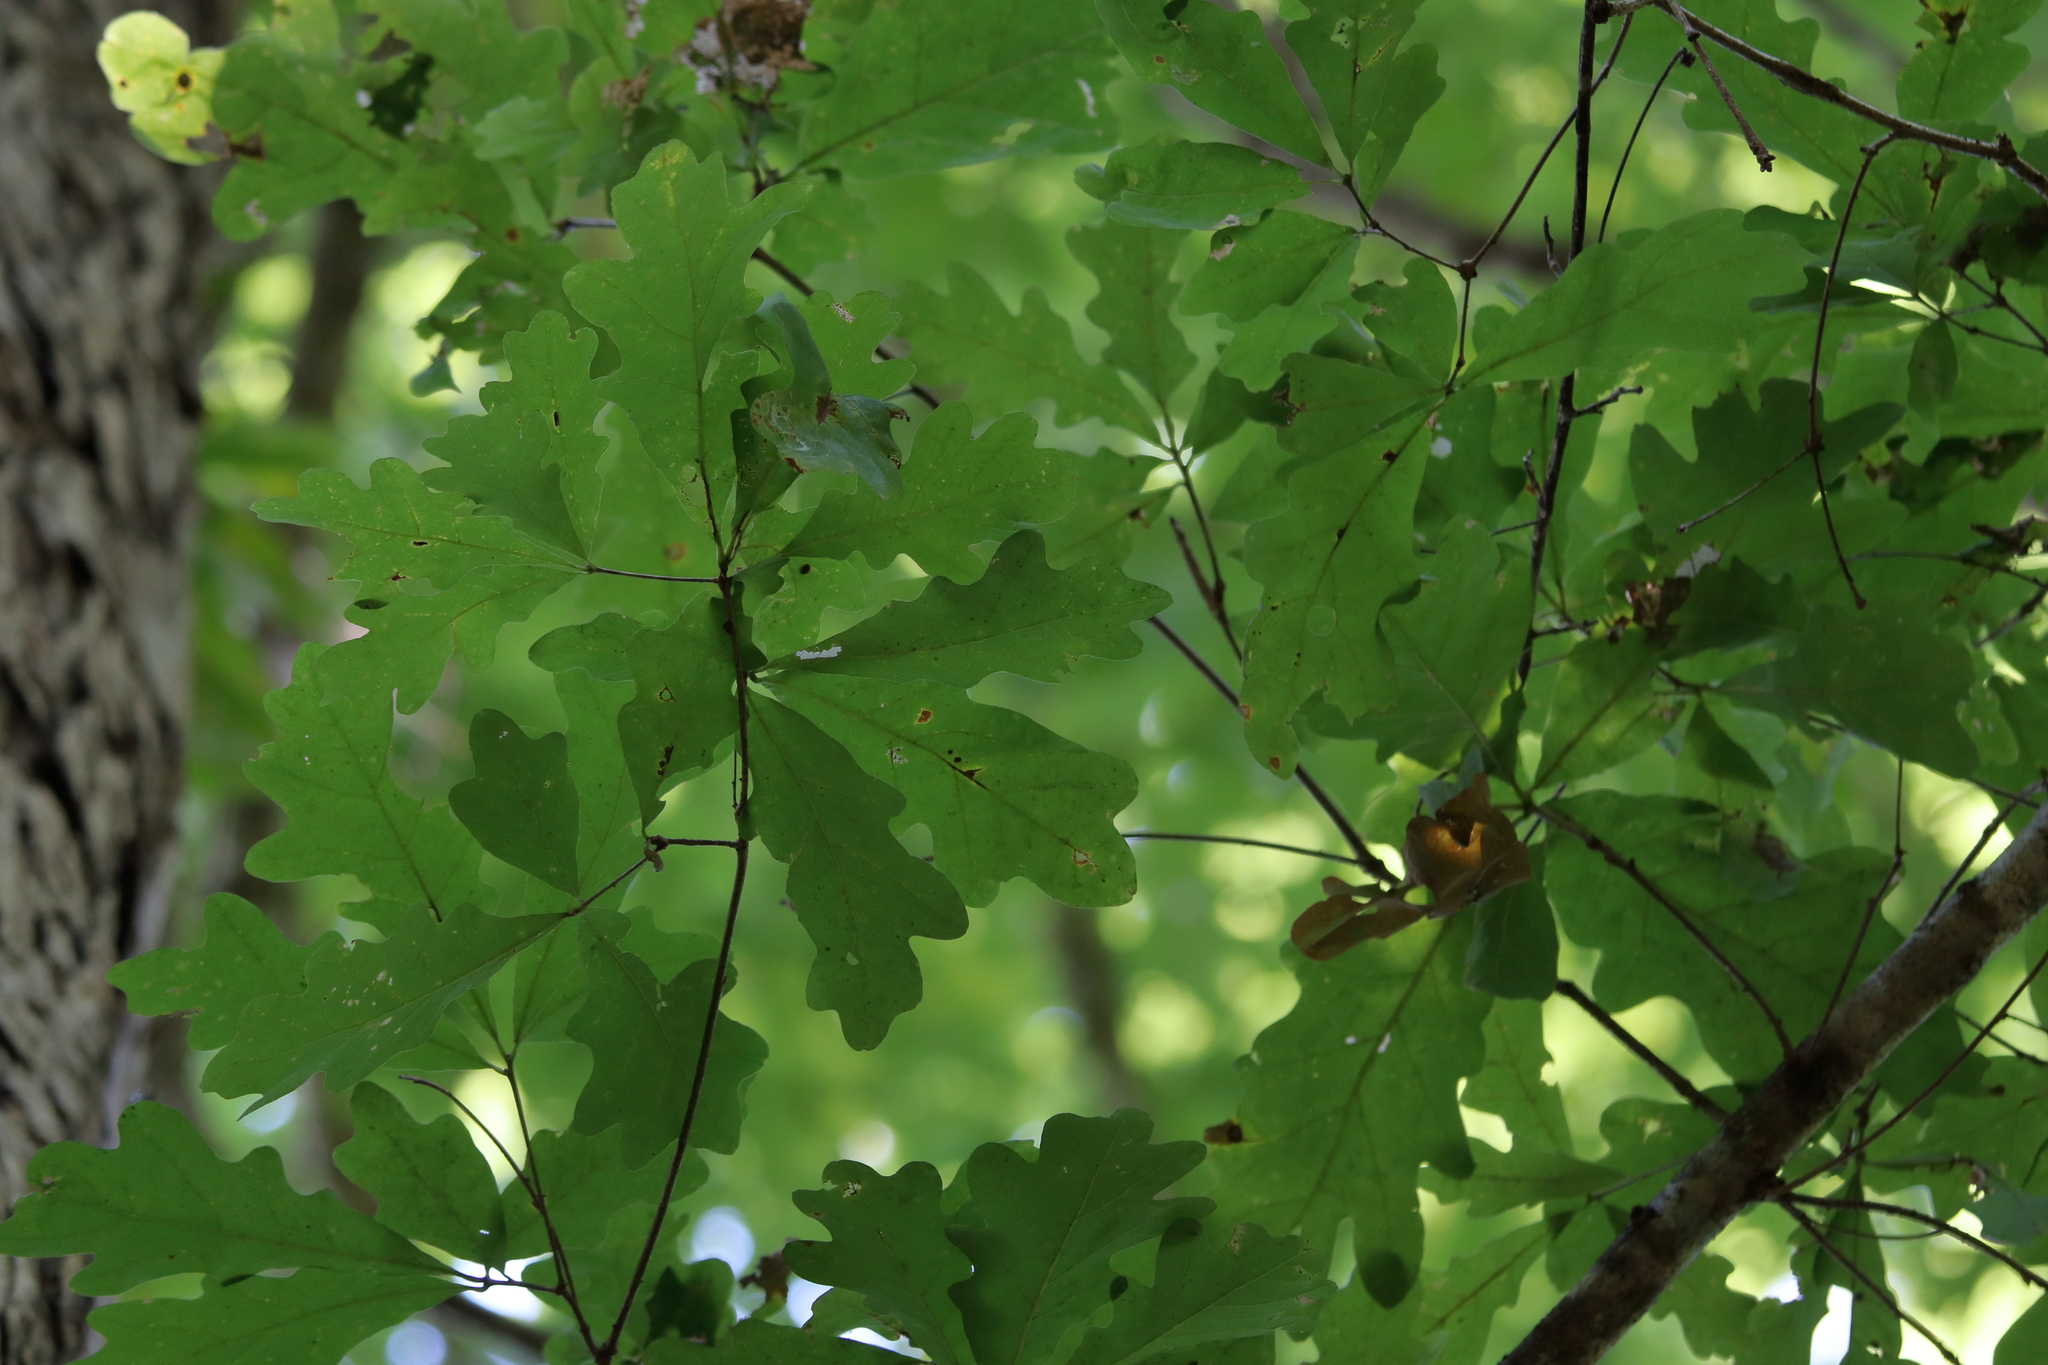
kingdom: Plantae
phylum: Tracheophyta
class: Magnoliopsida
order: Fagales
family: Fagaceae
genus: Quercus
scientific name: Quercus alba
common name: White oak
